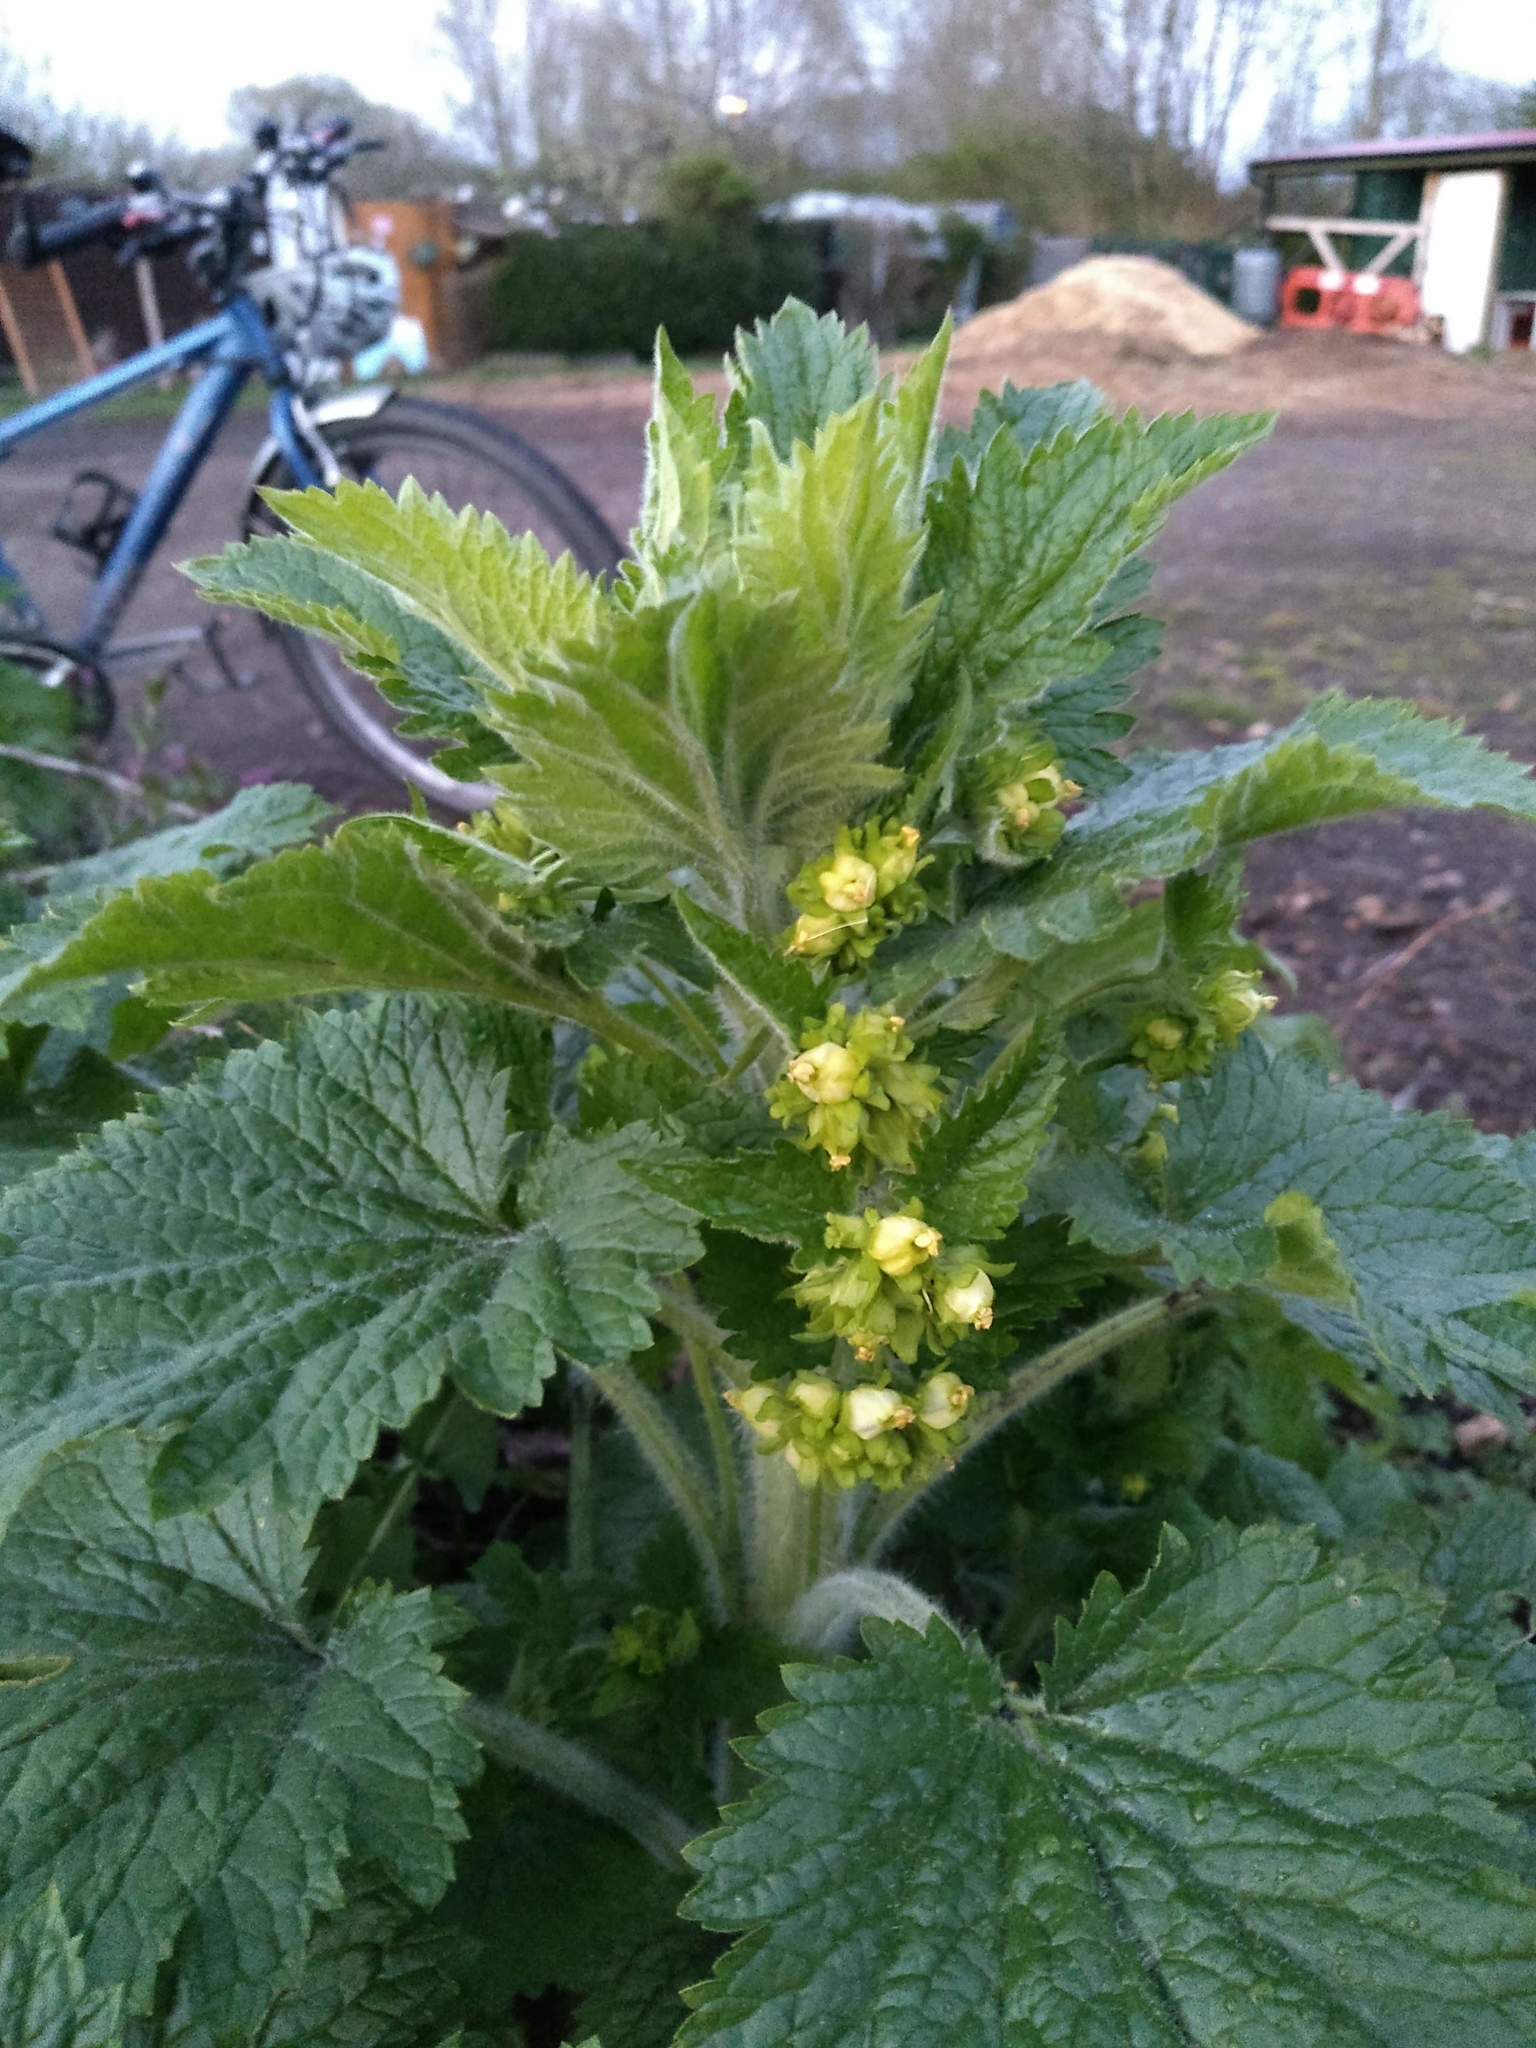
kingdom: Plantae
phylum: Tracheophyta
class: Magnoliopsida
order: Lamiales
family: Scrophulariaceae
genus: Scrophularia
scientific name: Scrophularia vernalis
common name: Yellow figwort
